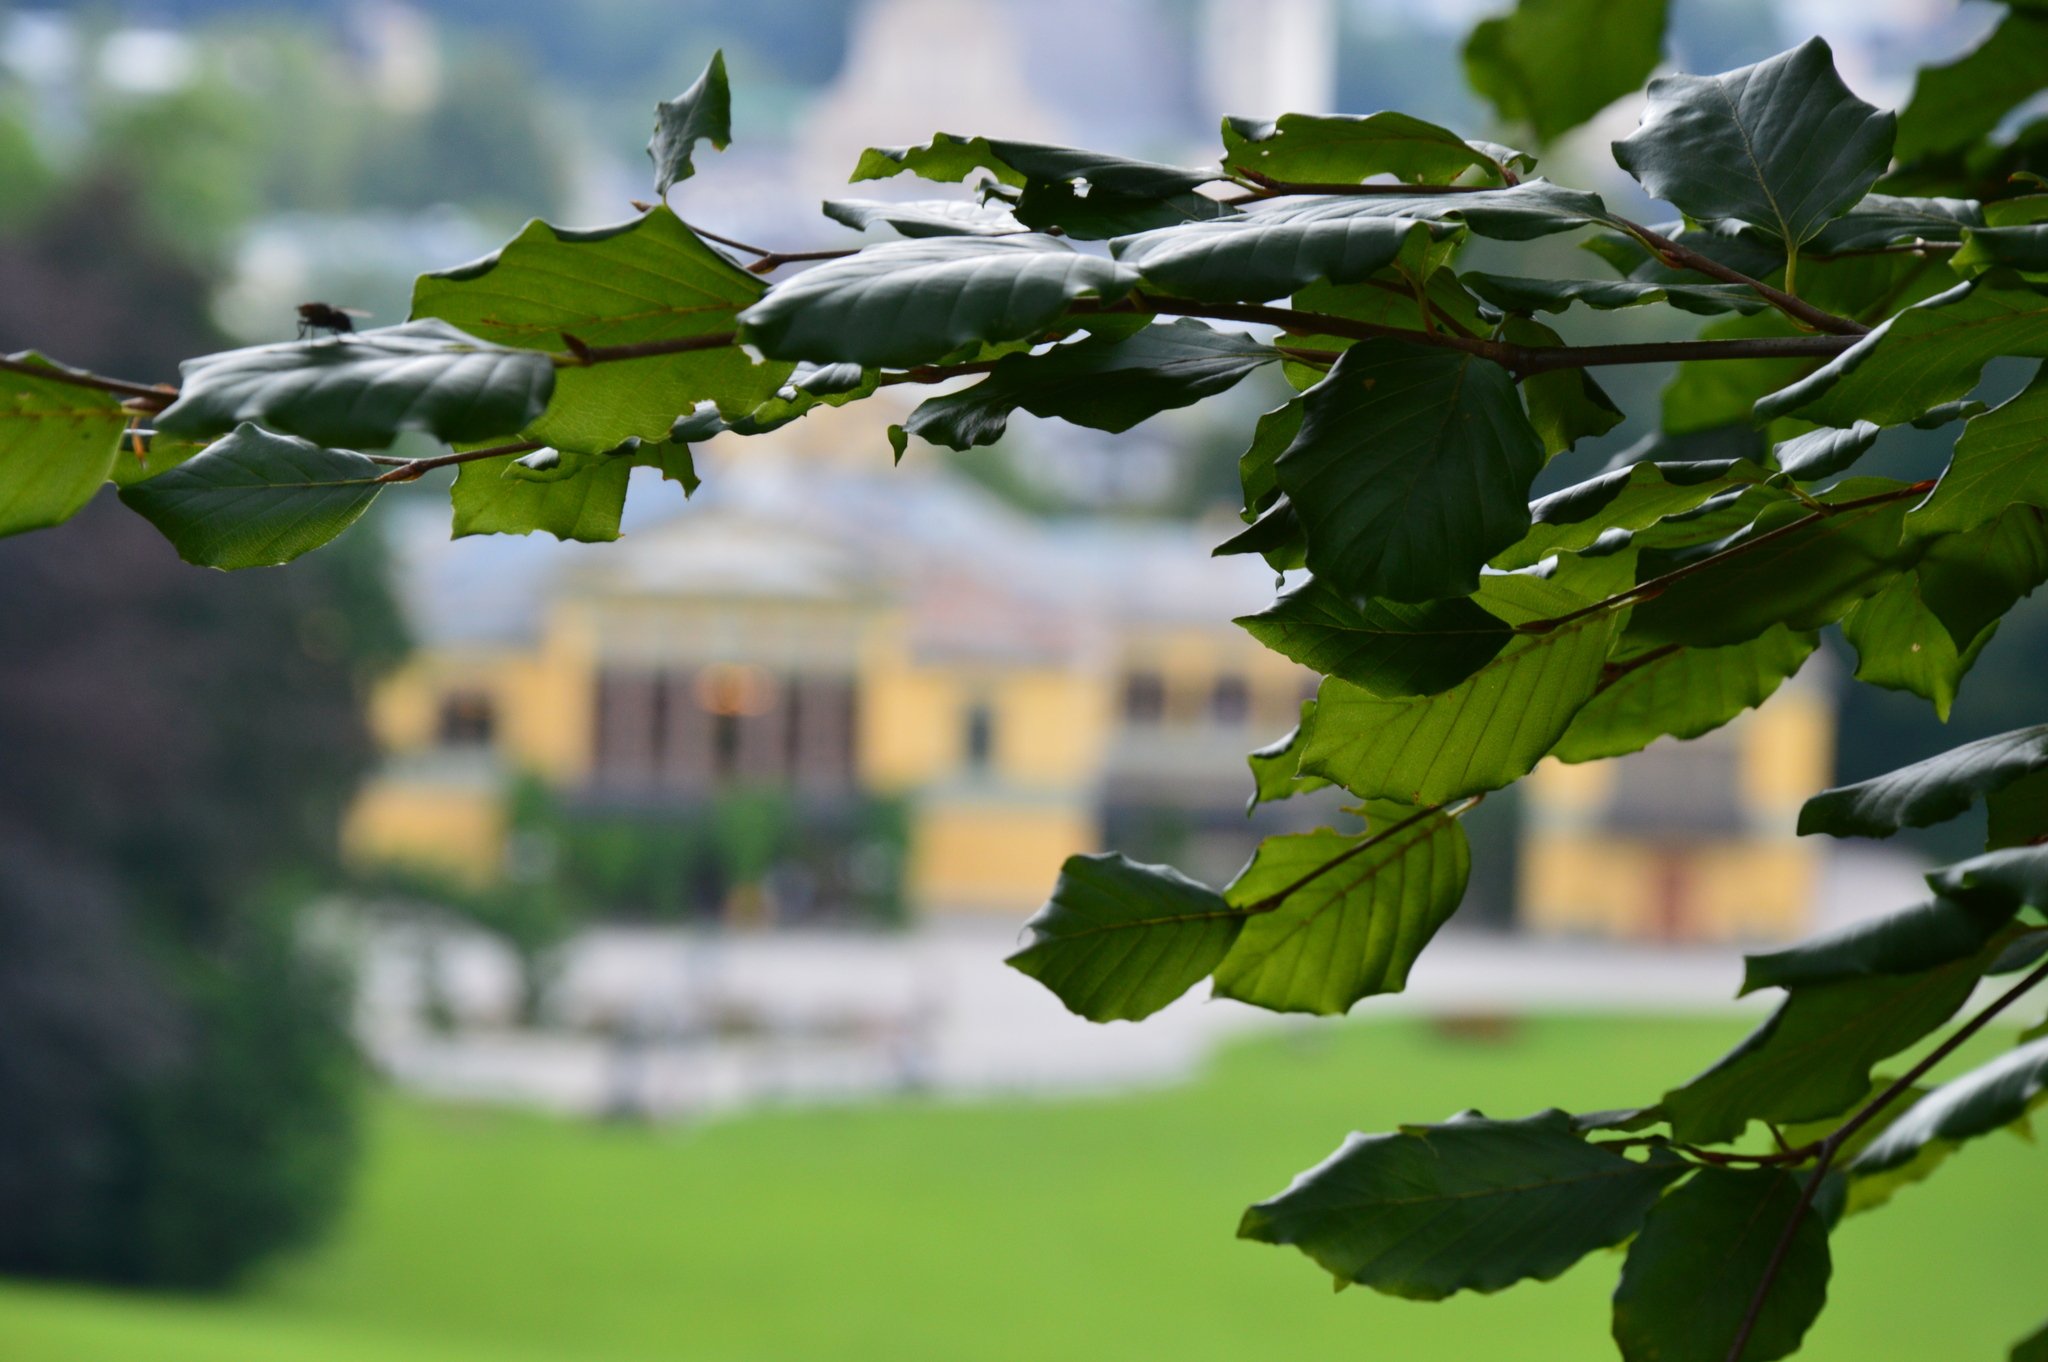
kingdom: Plantae
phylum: Tracheophyta
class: Magnoliopsida
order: Fagales
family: Fagaceae
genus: Fagus
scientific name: Fagus sylvatica
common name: Beech
